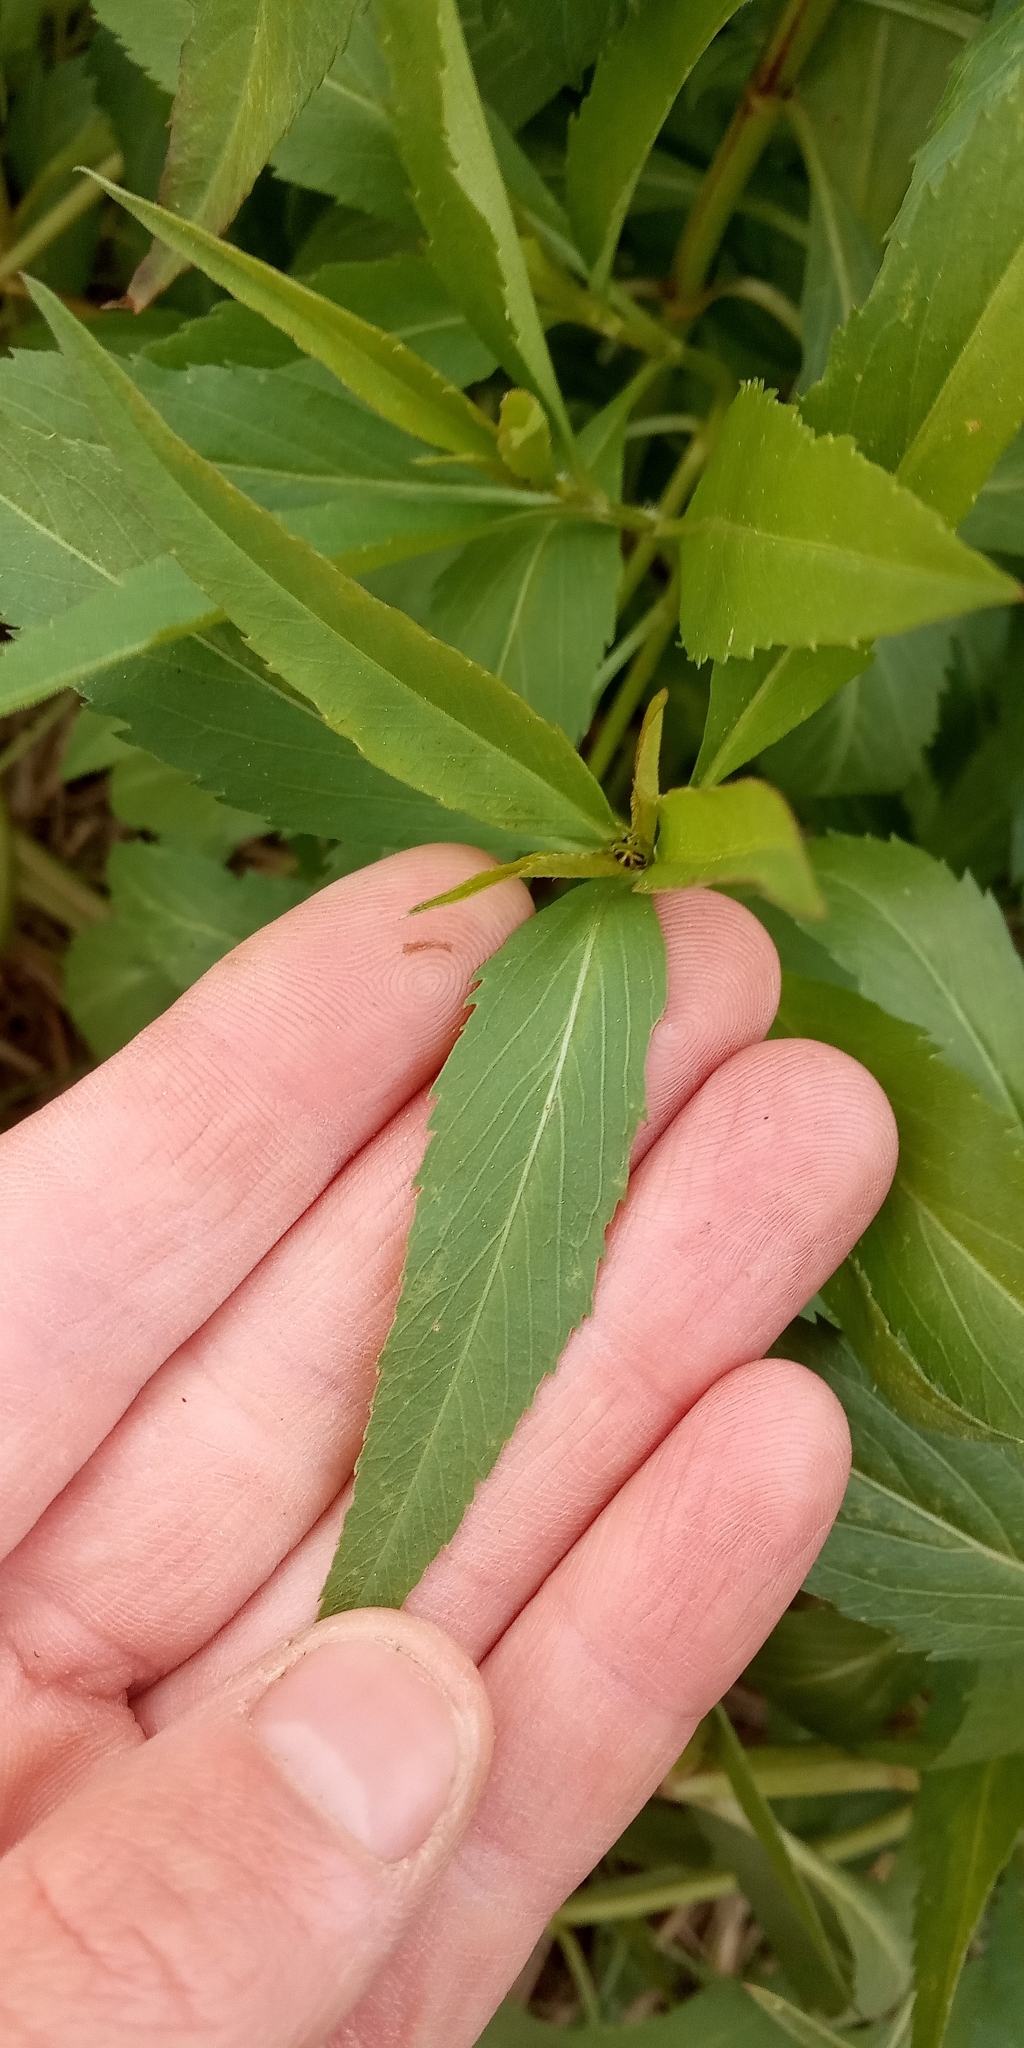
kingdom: Plantae
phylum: Tracheophyta
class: Magnoliopsida
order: Asterales
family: Asteraceae
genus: Bidens
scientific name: Bidens aurea
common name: Arizona beggar-ticks
